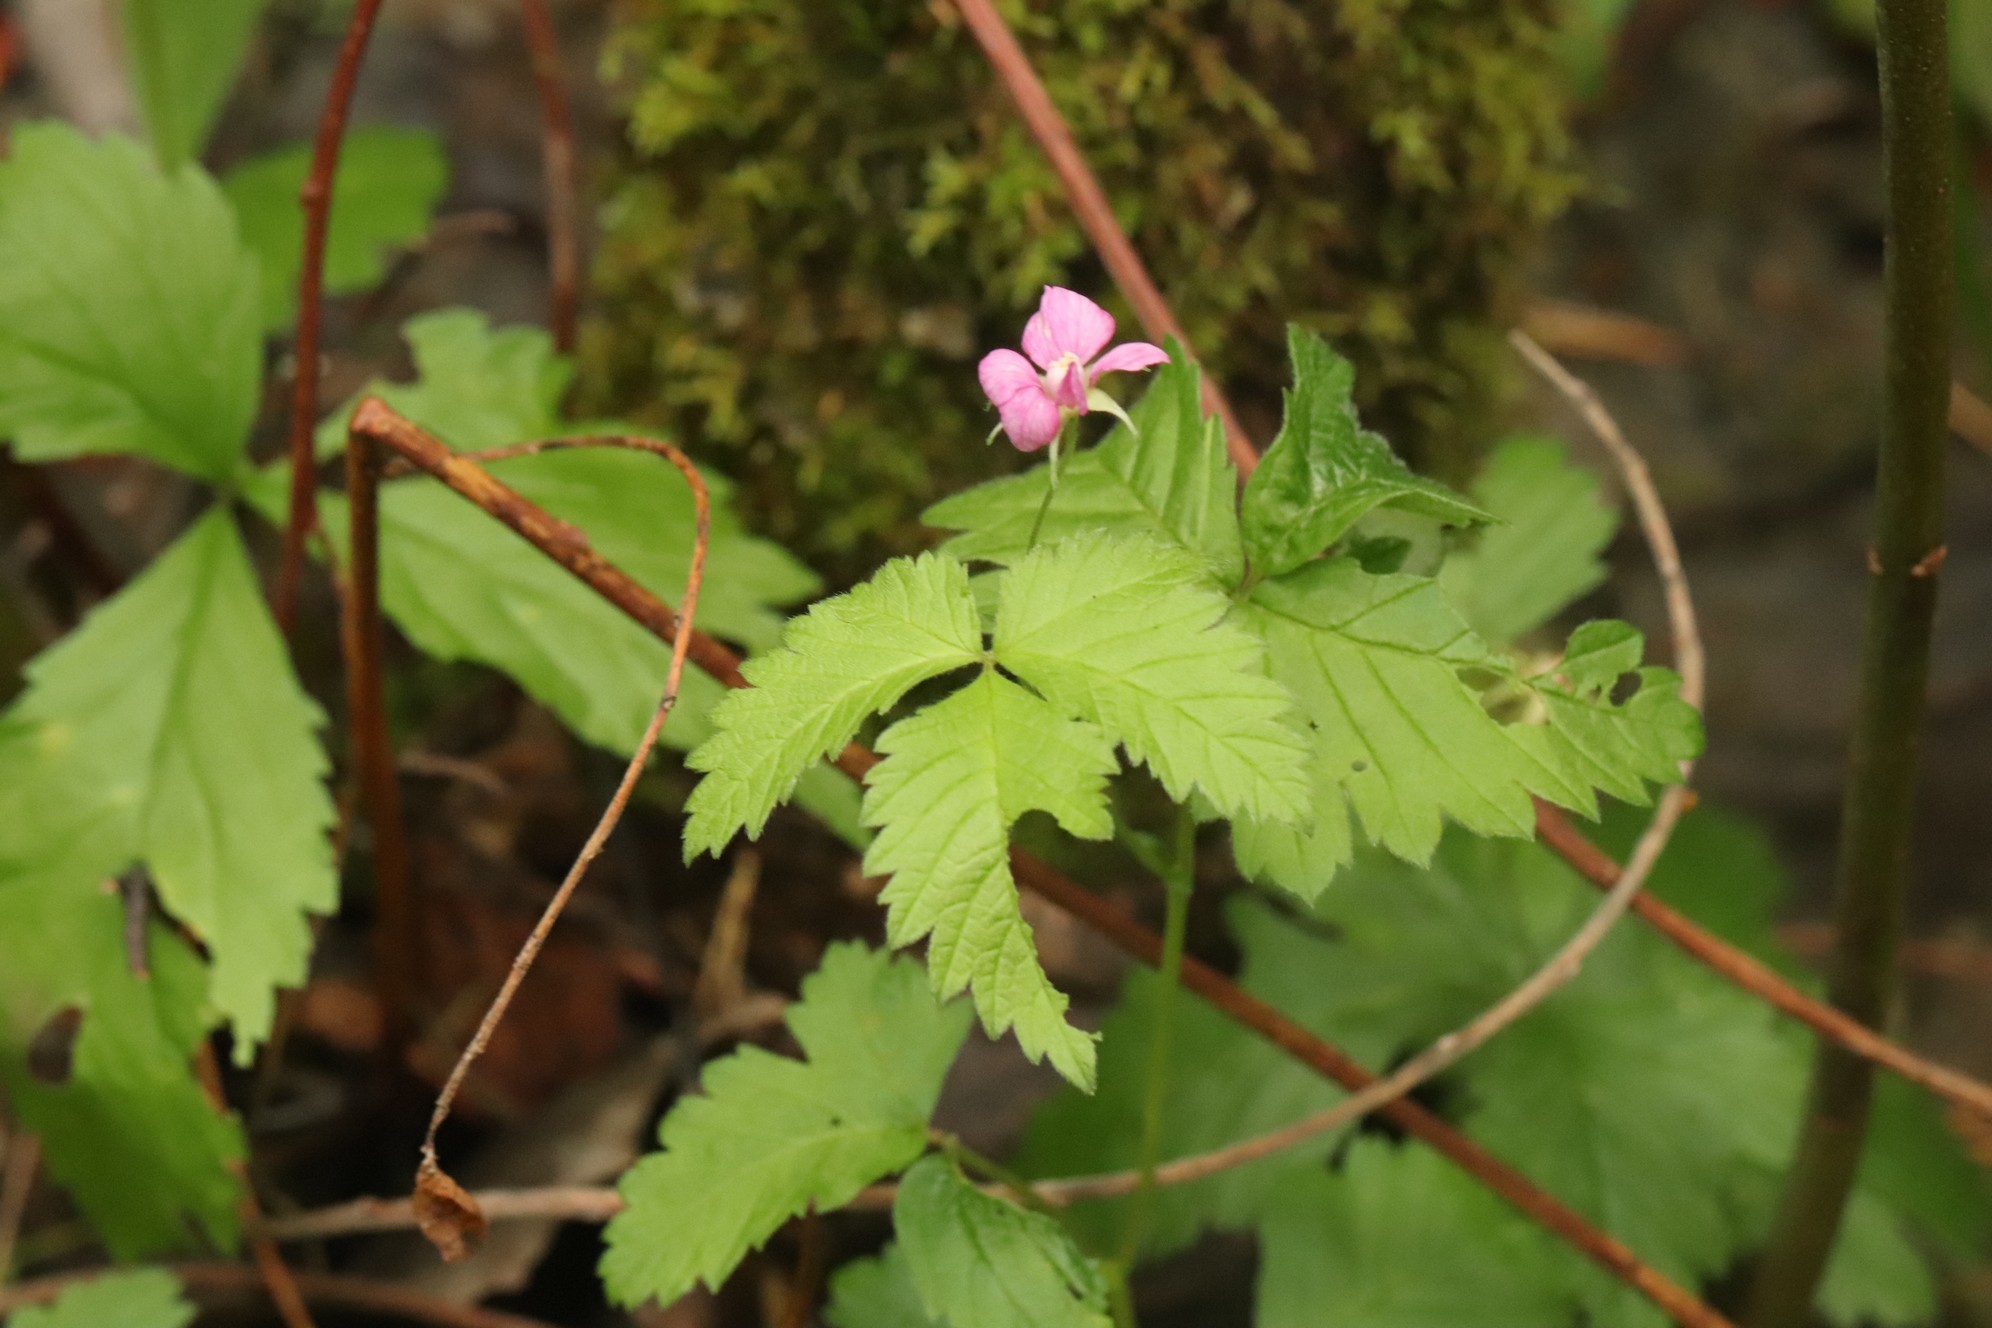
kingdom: Plantae
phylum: Tracheophyta
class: Magnoliopsida
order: Rosales
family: Rosaceae
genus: Rubus
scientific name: Rubus arcticus
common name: Arctic bramble
